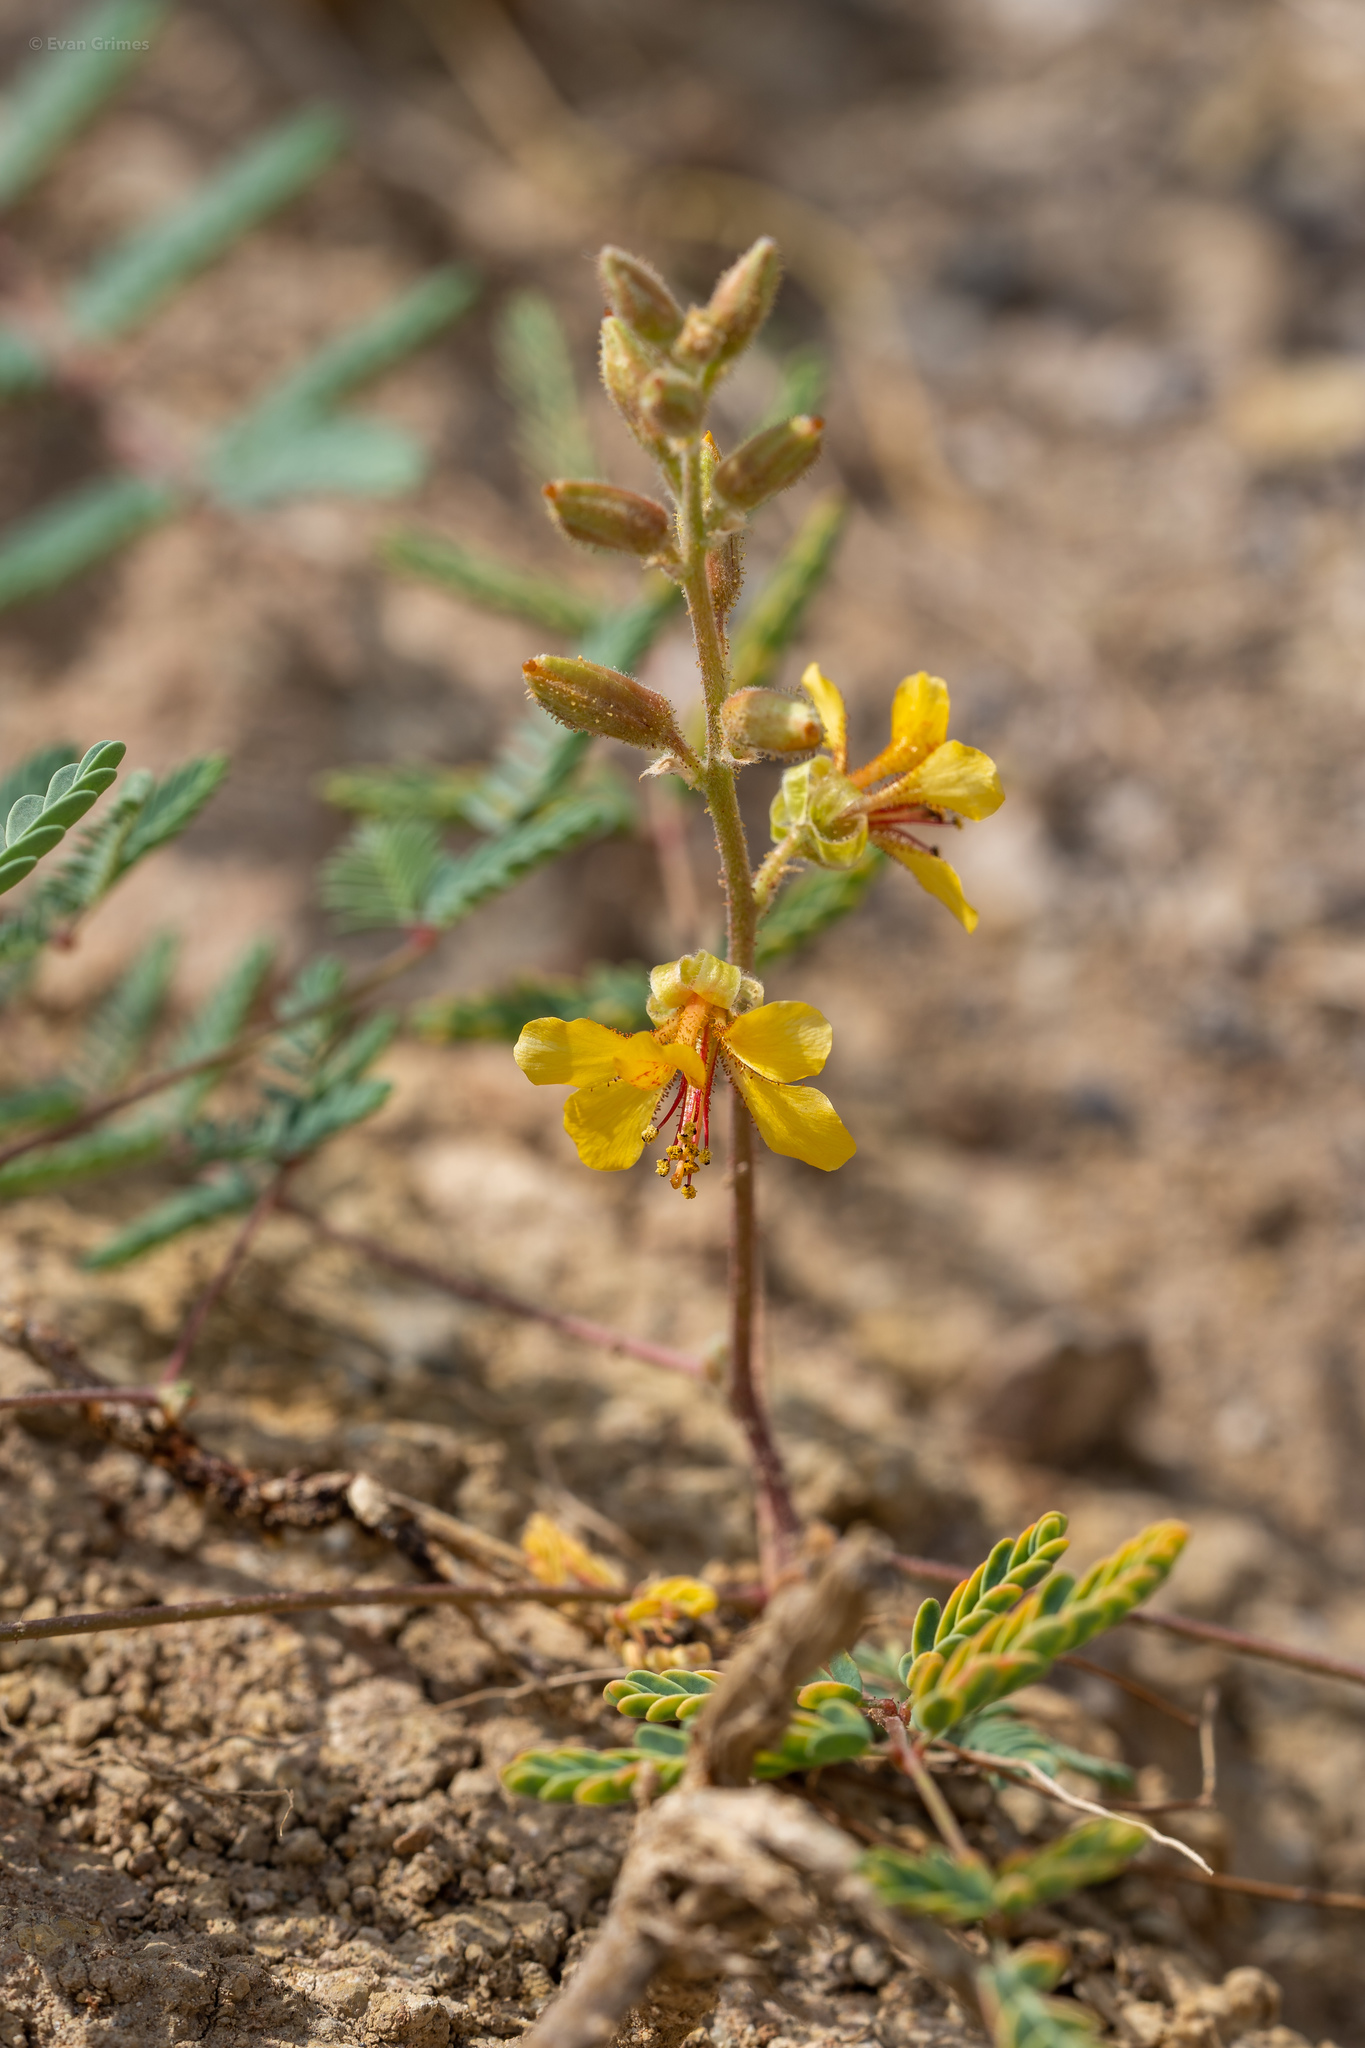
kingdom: Plantae
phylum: Tracheophyta
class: Magnoliopsida
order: Fabales
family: Fabaceae
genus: Hoffmannseggia
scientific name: Hoffmannseggia glauca
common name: Pignut
